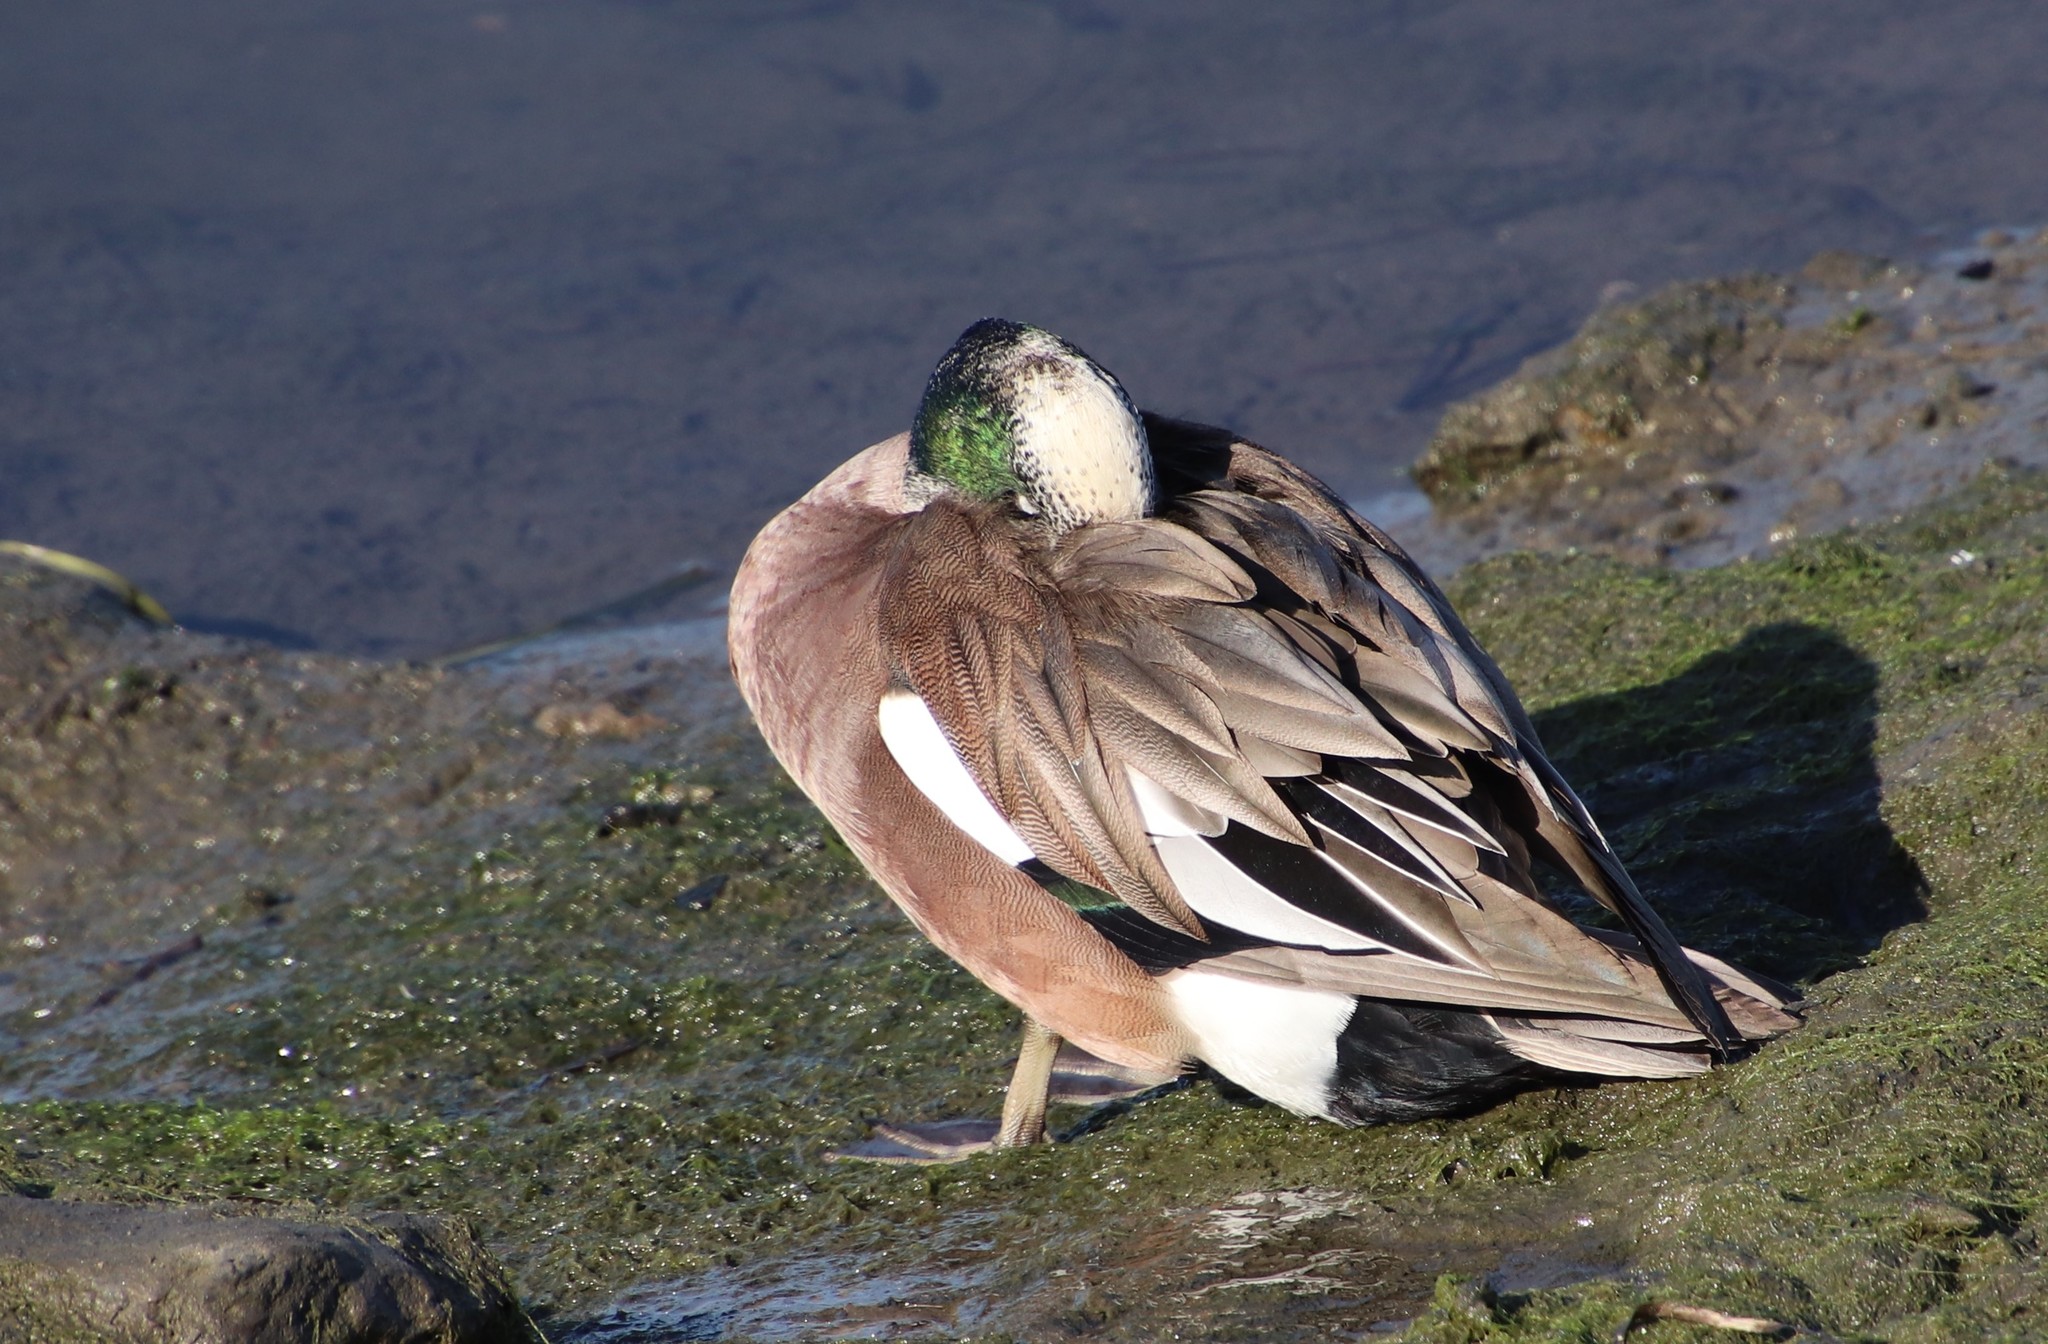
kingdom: Animalia
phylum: Chordata
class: Aves
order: Anseriformes
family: Anatidae
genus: Mareca
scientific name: Mareca americana
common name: American wigeon
